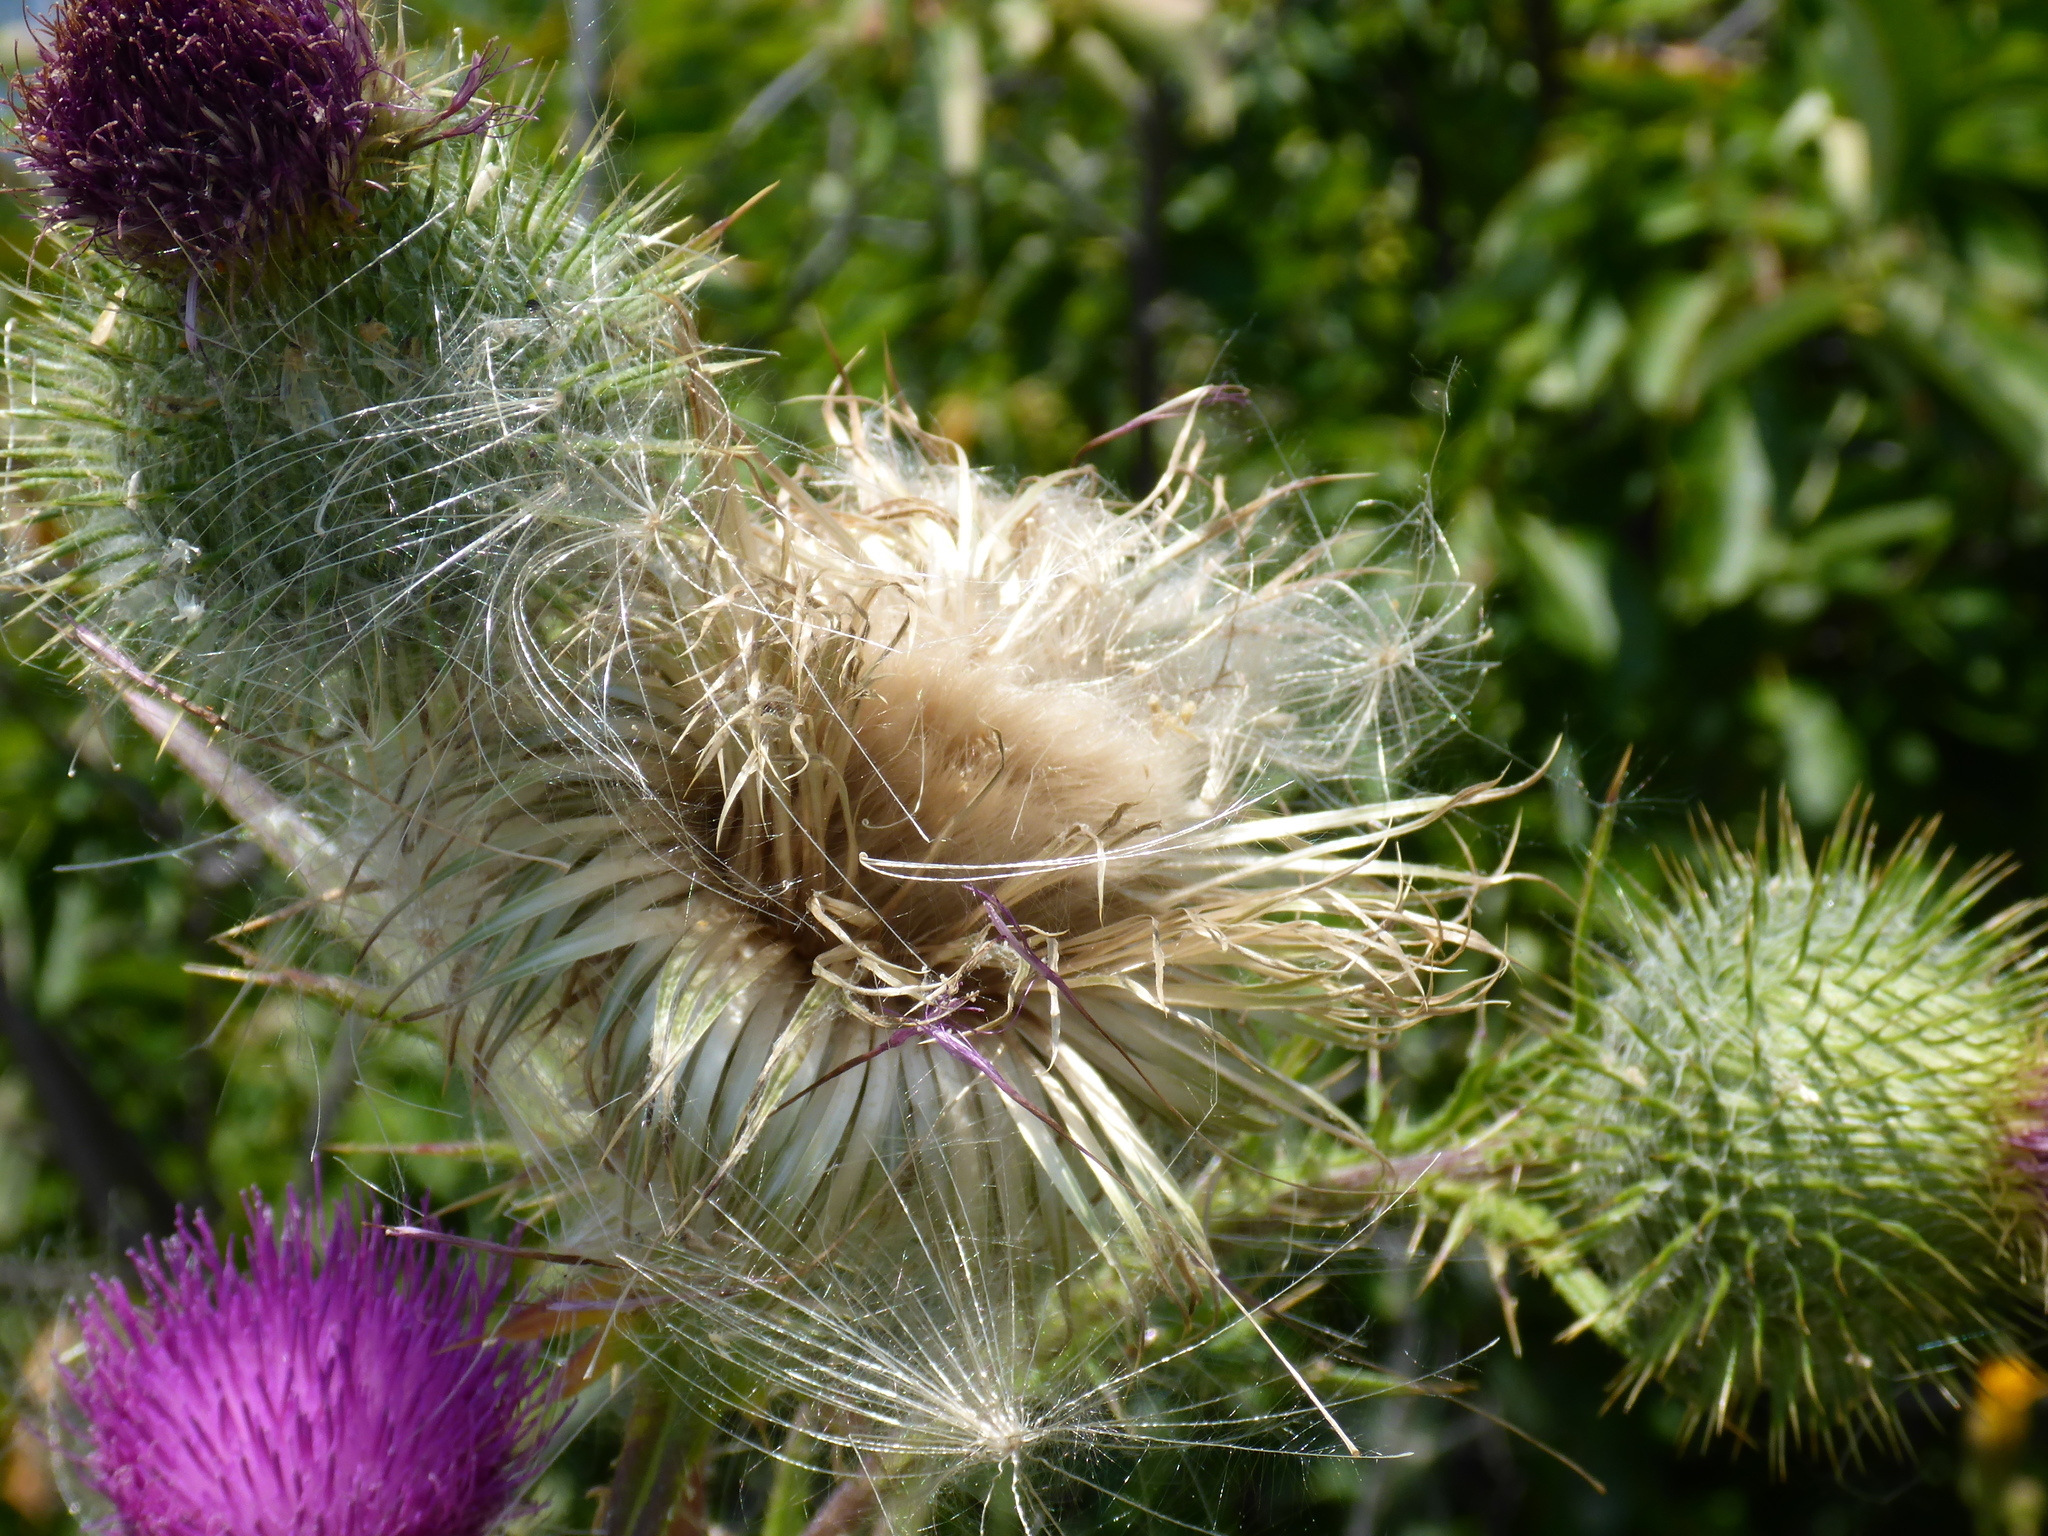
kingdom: Plantae
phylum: Tracheophyta
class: Magnoliopsida
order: Asterales
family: Asteraceae
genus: Cirsium
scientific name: Cirsium vulgare
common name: Bull thistle
